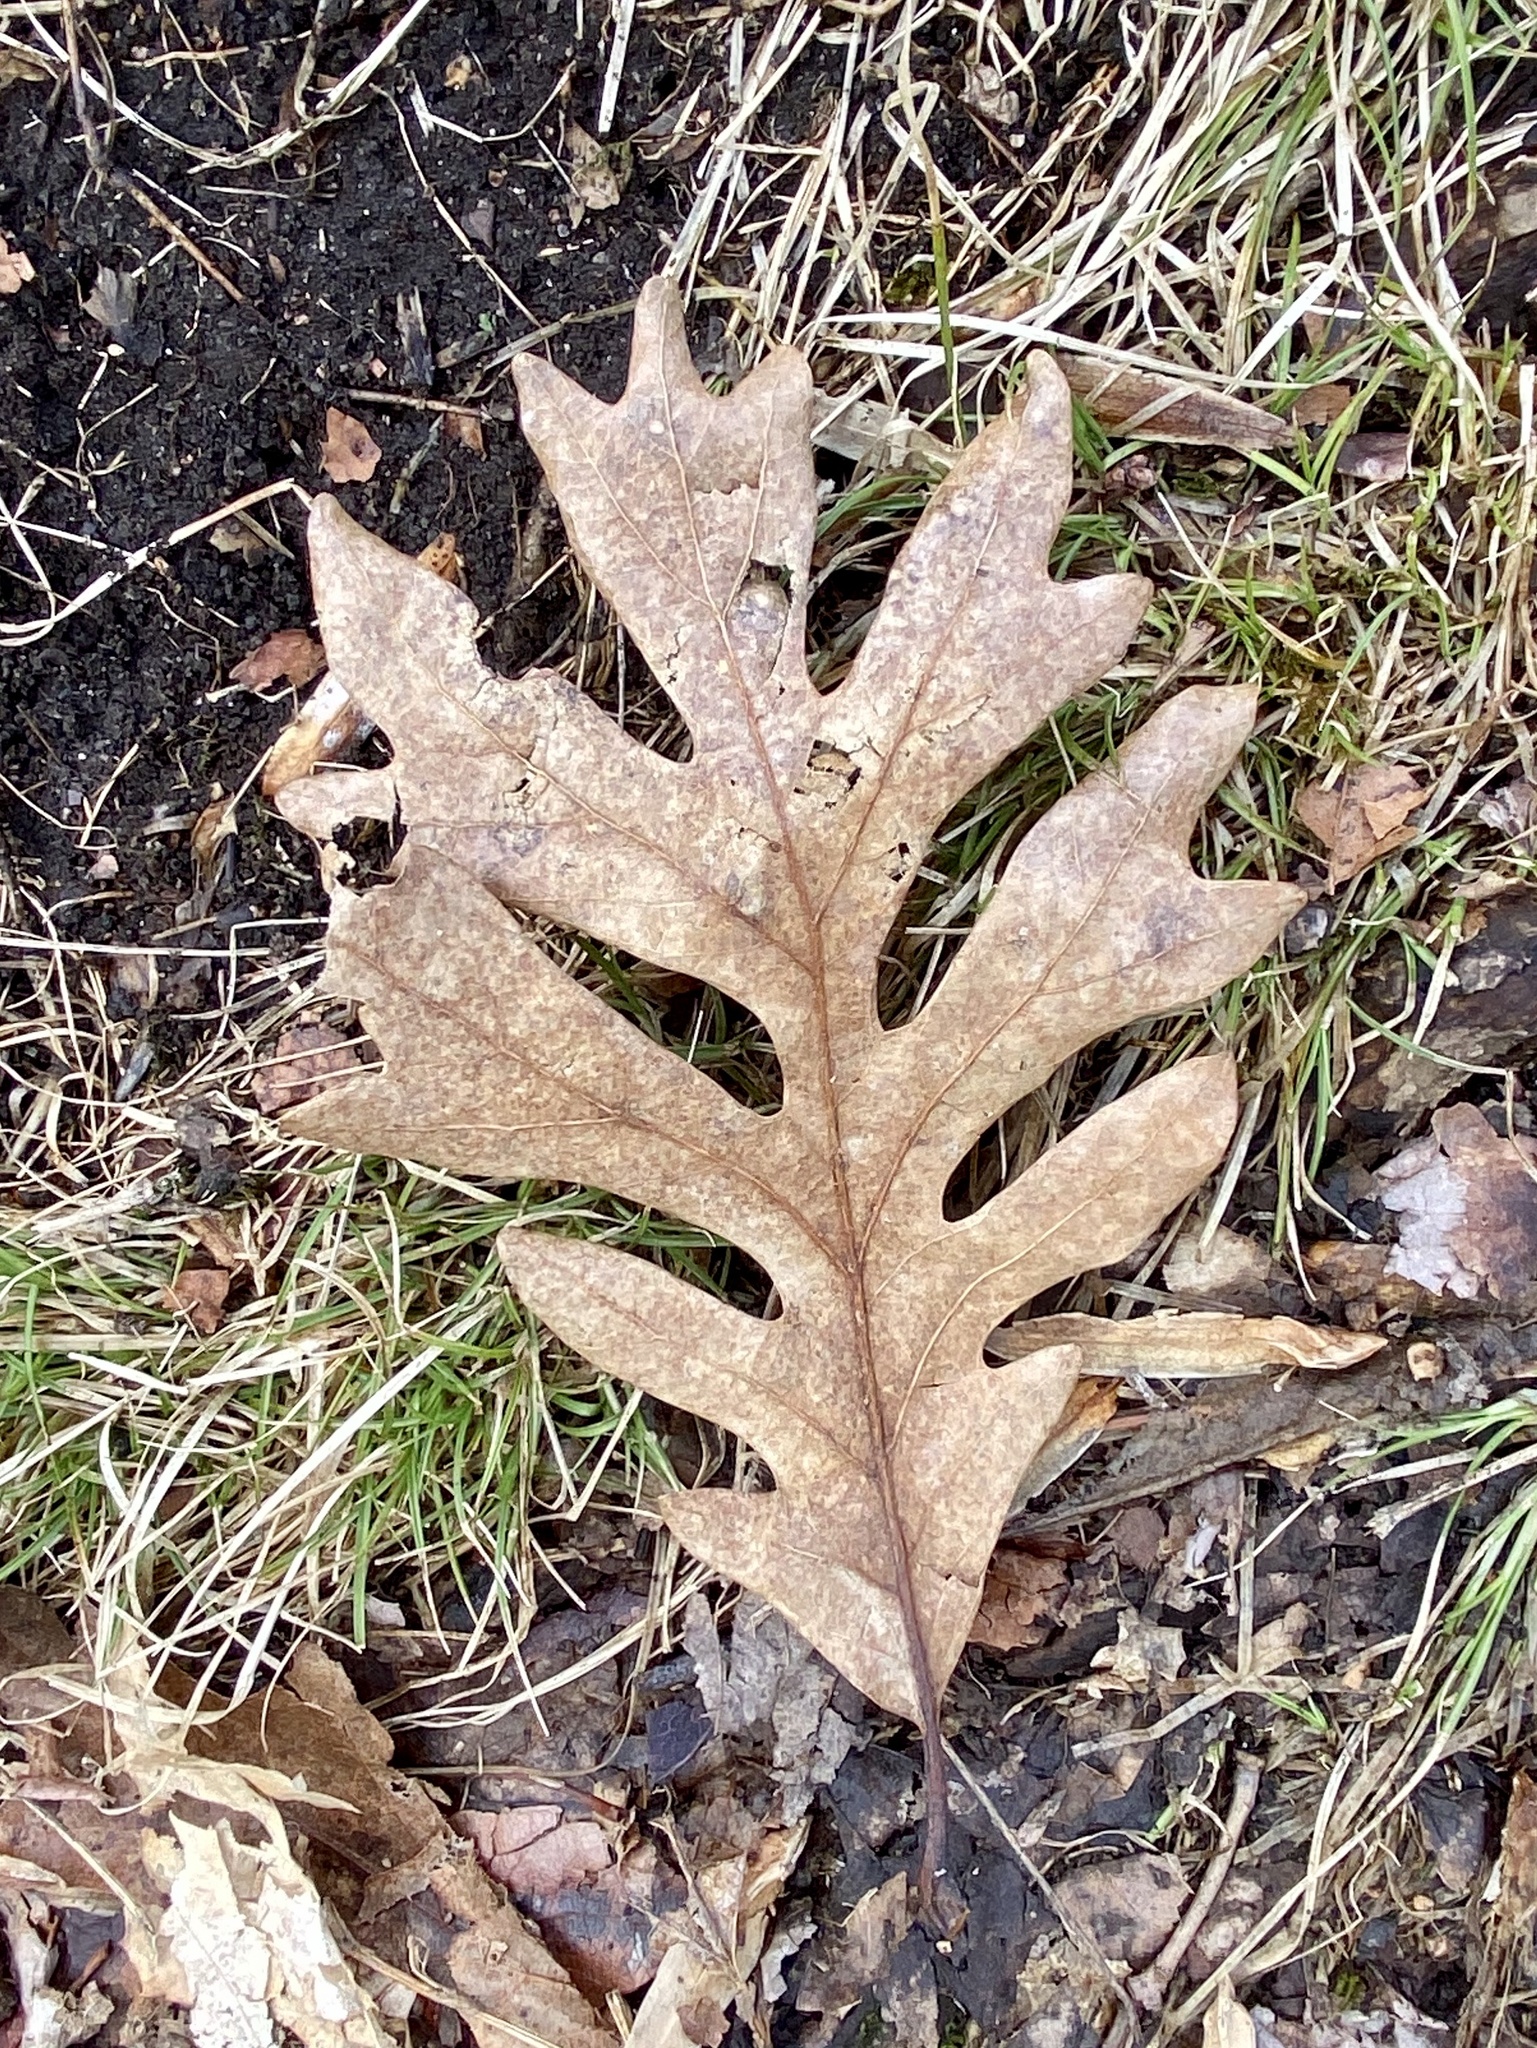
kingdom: Plantae
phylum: Tracheophyta
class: Magnoliopsida
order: Fagales
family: Fagaceae
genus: Quercus
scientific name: Quercus alba
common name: White oak
